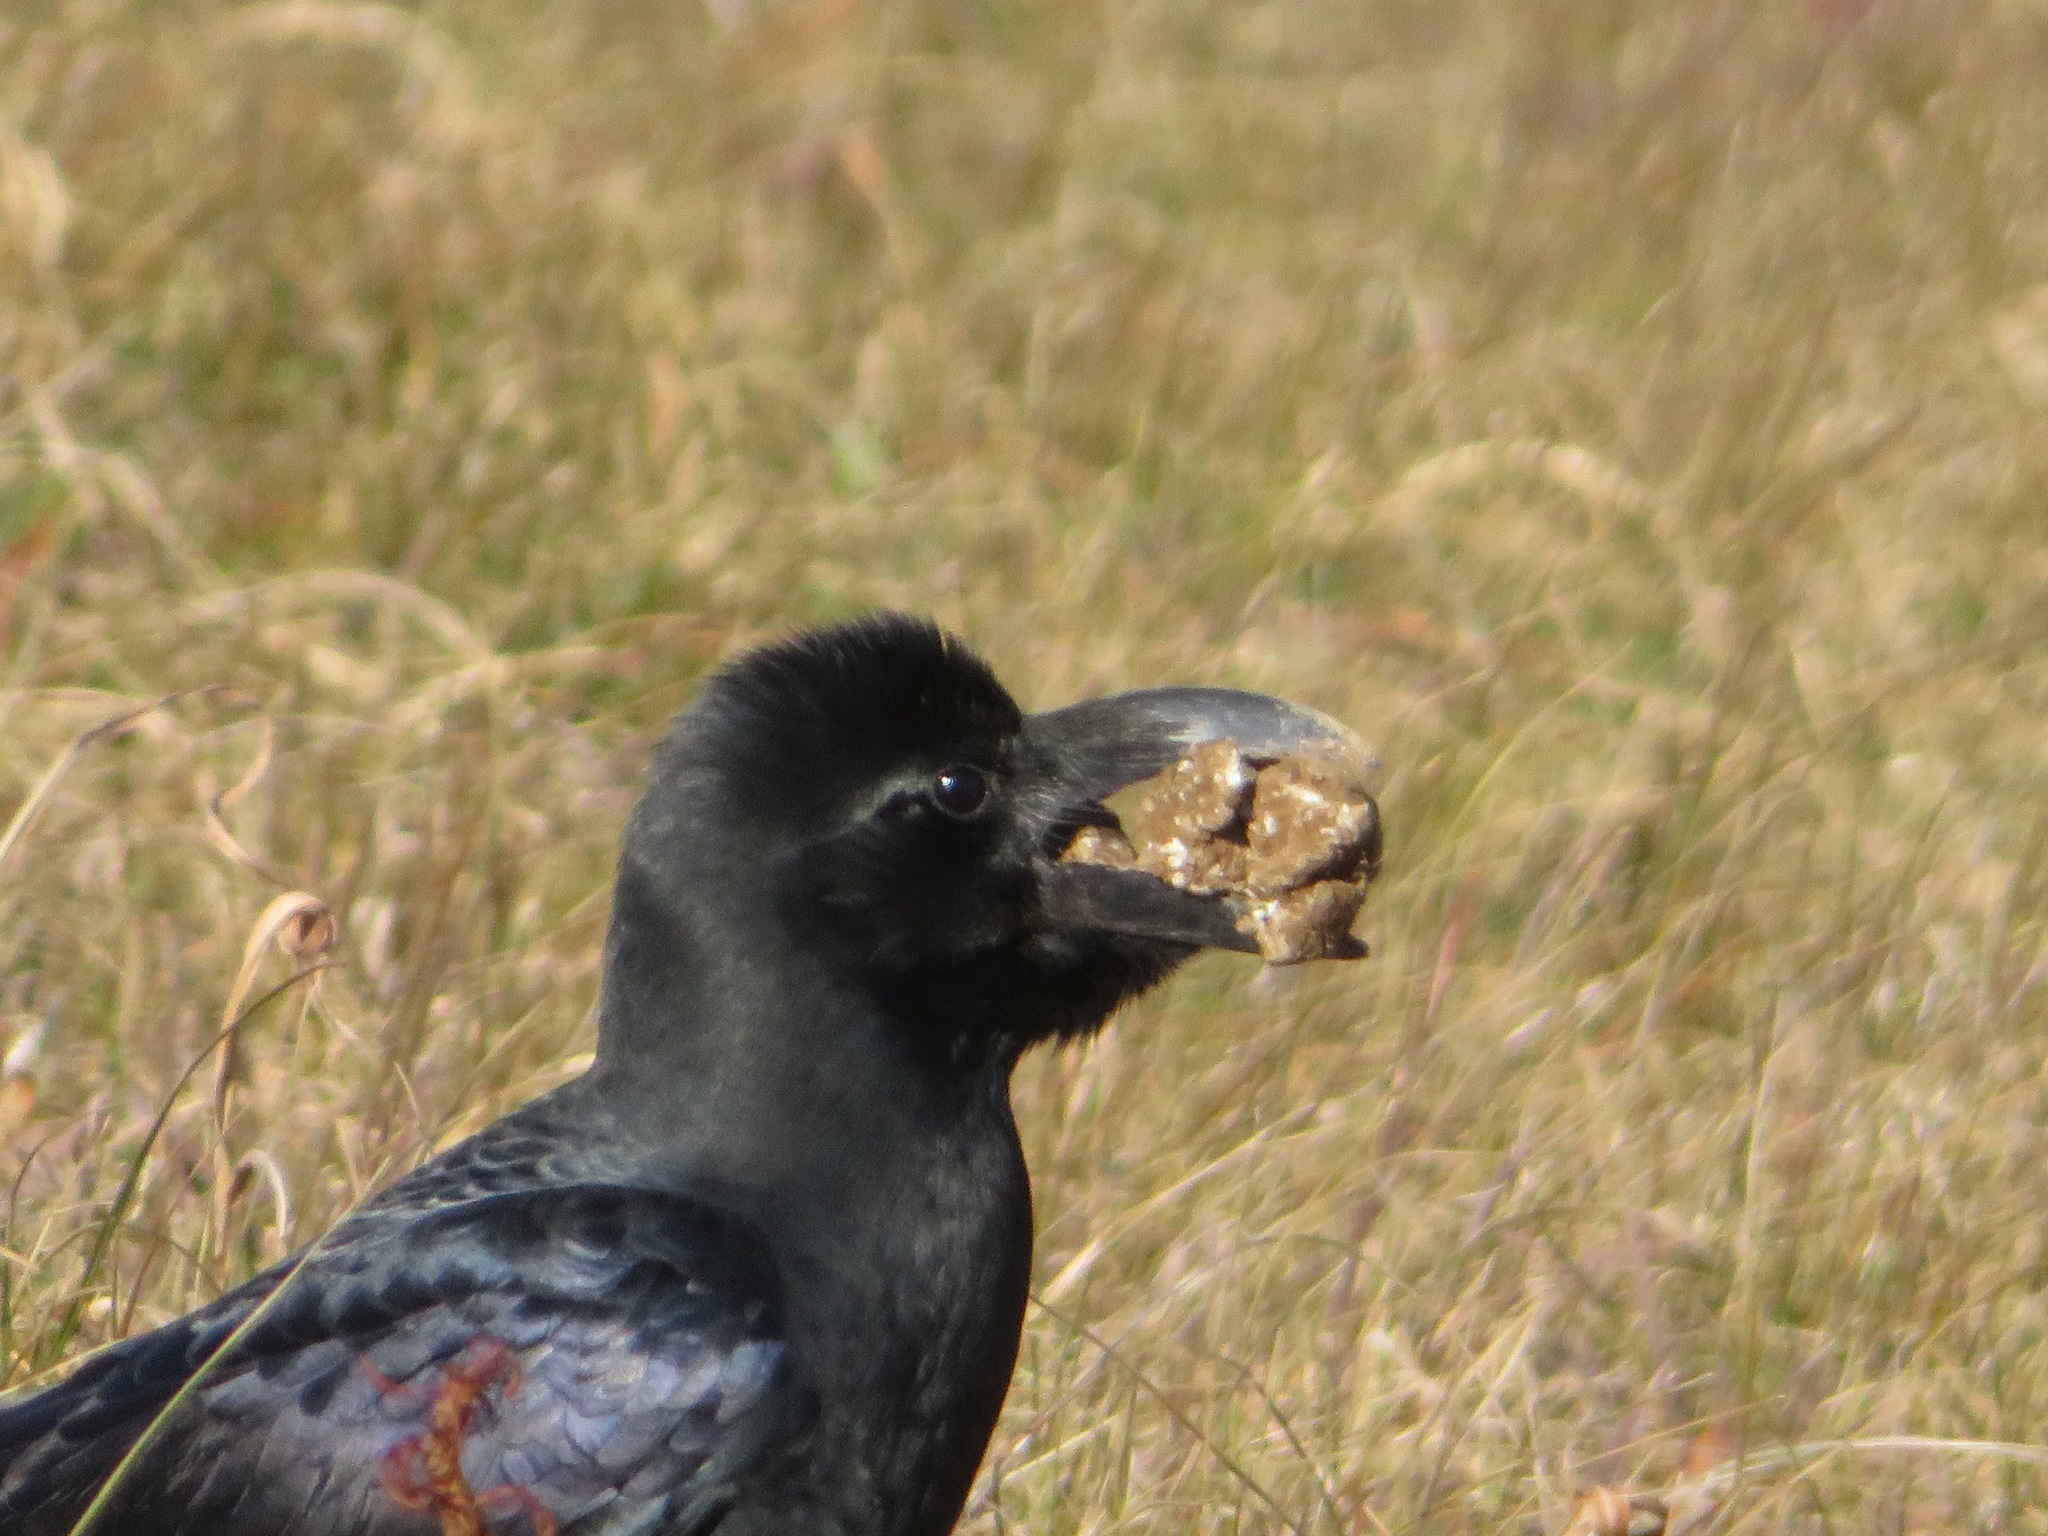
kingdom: Animalia
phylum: Chordata
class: Aves
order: Passeriformes
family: Corvidae
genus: Corvus
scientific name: Corvus macrorhynchos
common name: Large-billed crow
